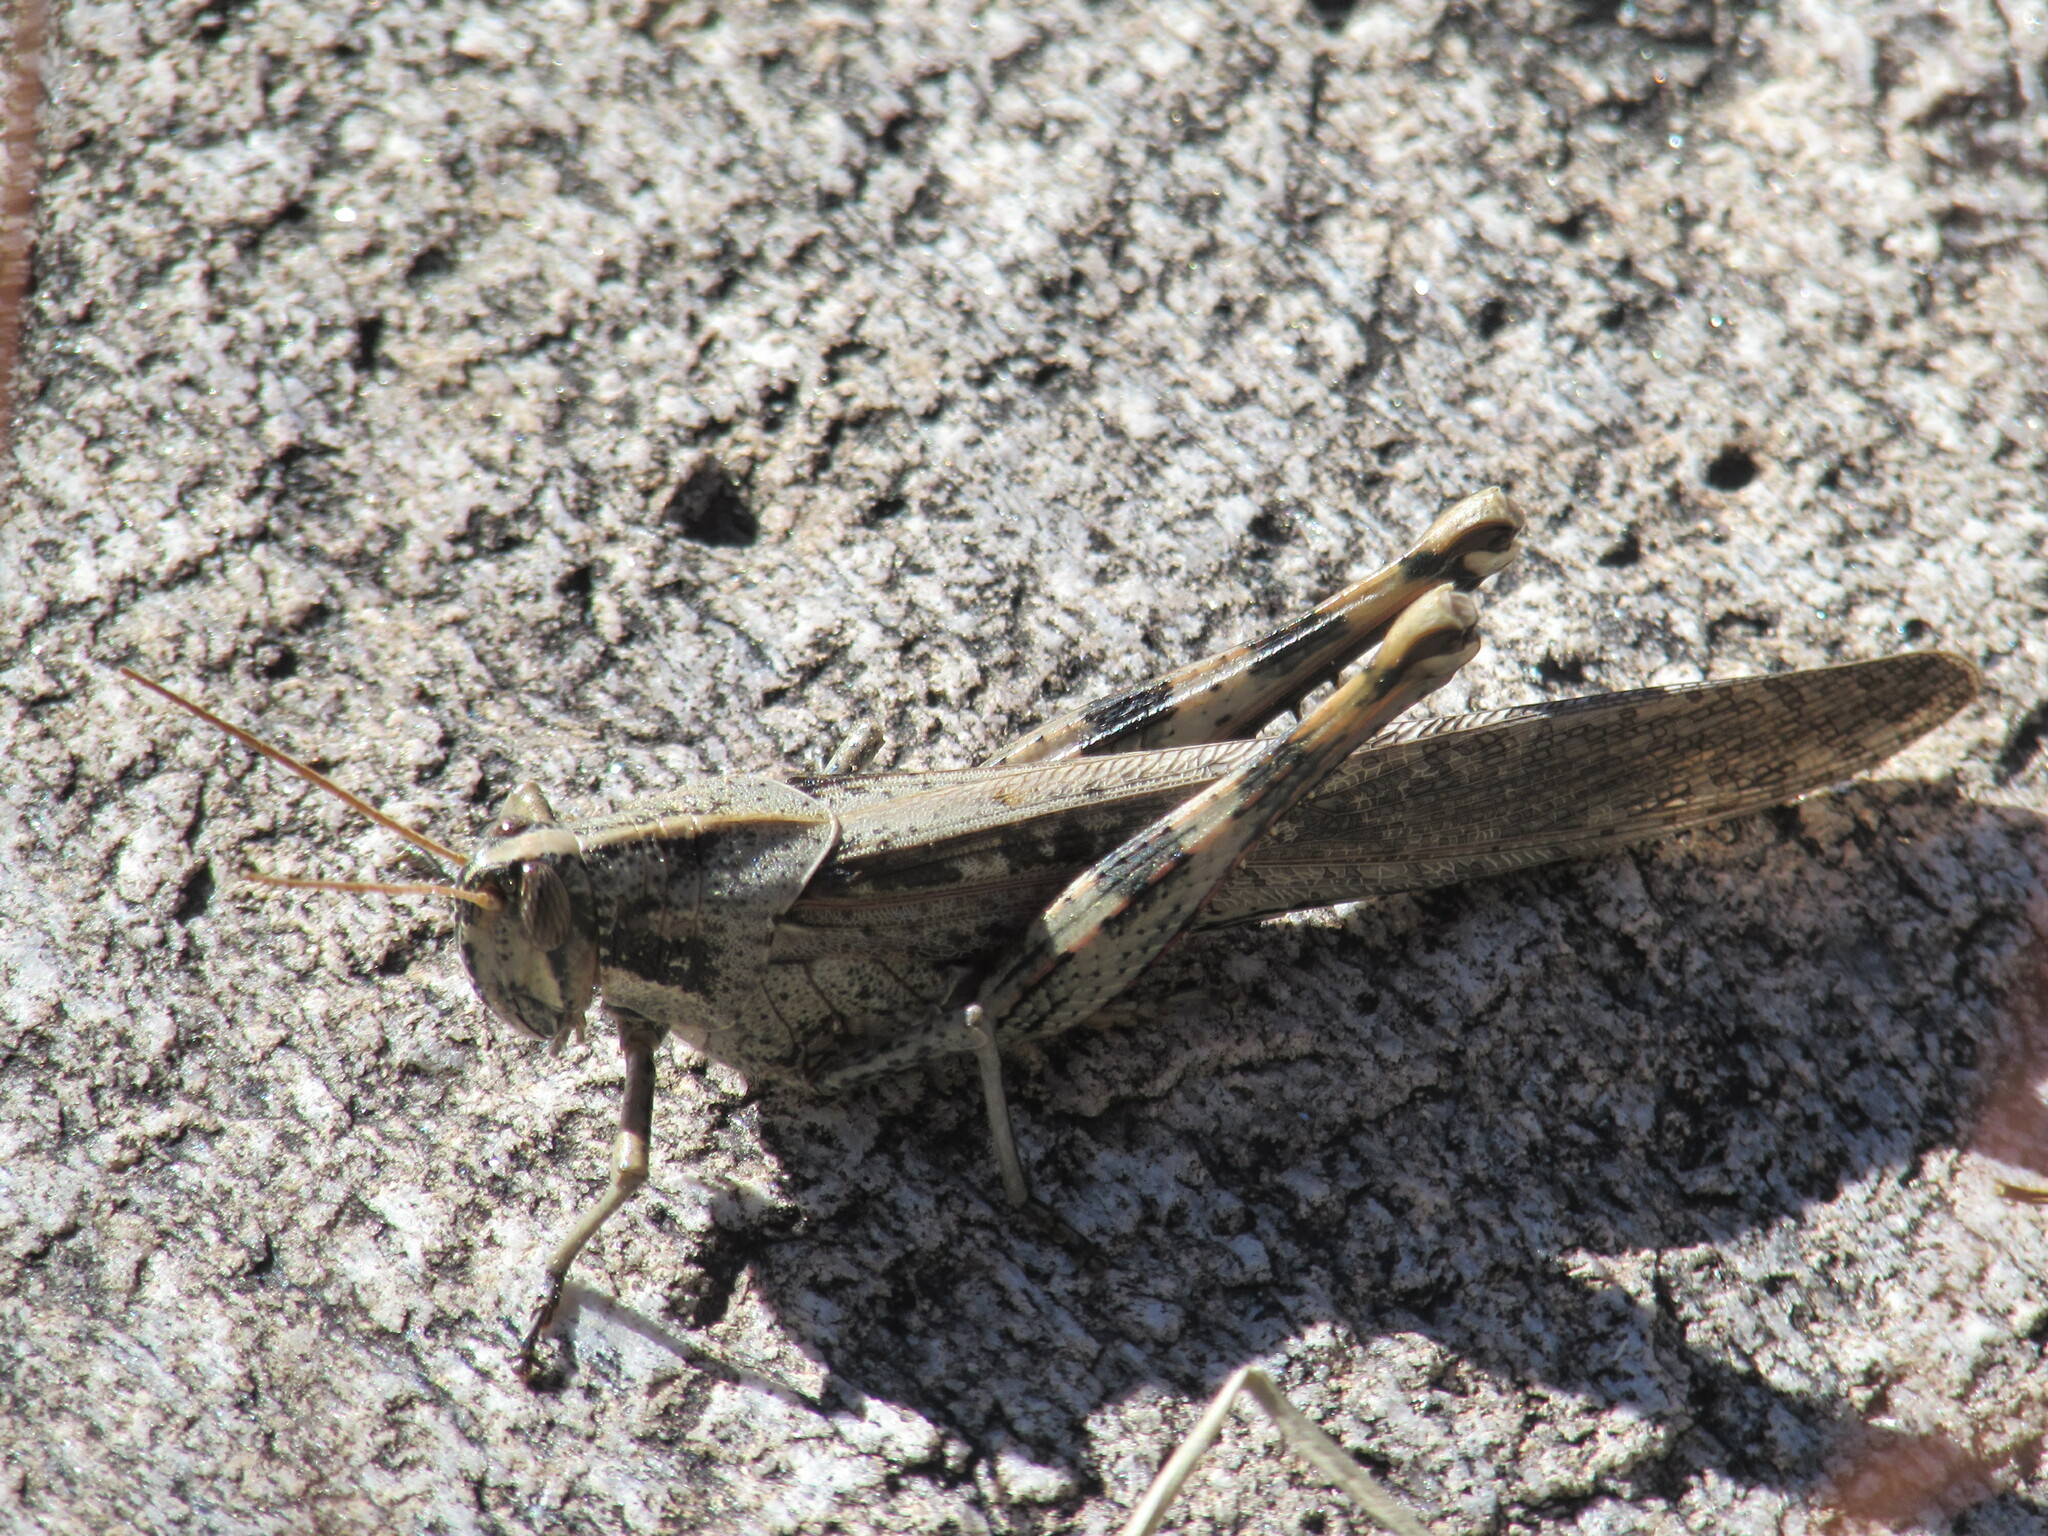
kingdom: Animalia
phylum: Arthropoda
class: Insecta
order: Orthoptera
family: Acrididae
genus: Schistocerca
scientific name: Schistocerca nitens
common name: Vagrant grasshopper
